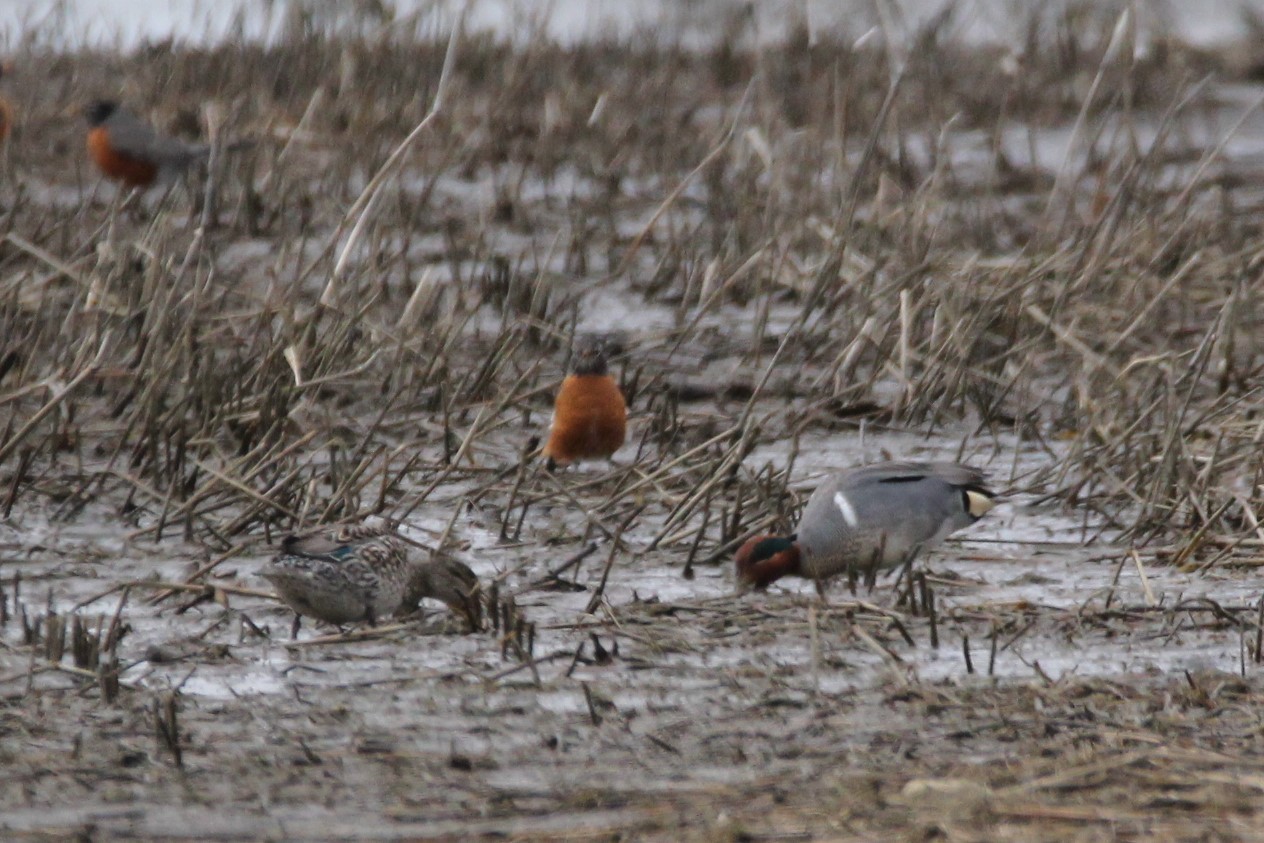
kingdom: Animalia
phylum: Chordata
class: Aves
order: Anseriformes
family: Anatidae
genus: Anas
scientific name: Anas crecca
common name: Eurasian teal
